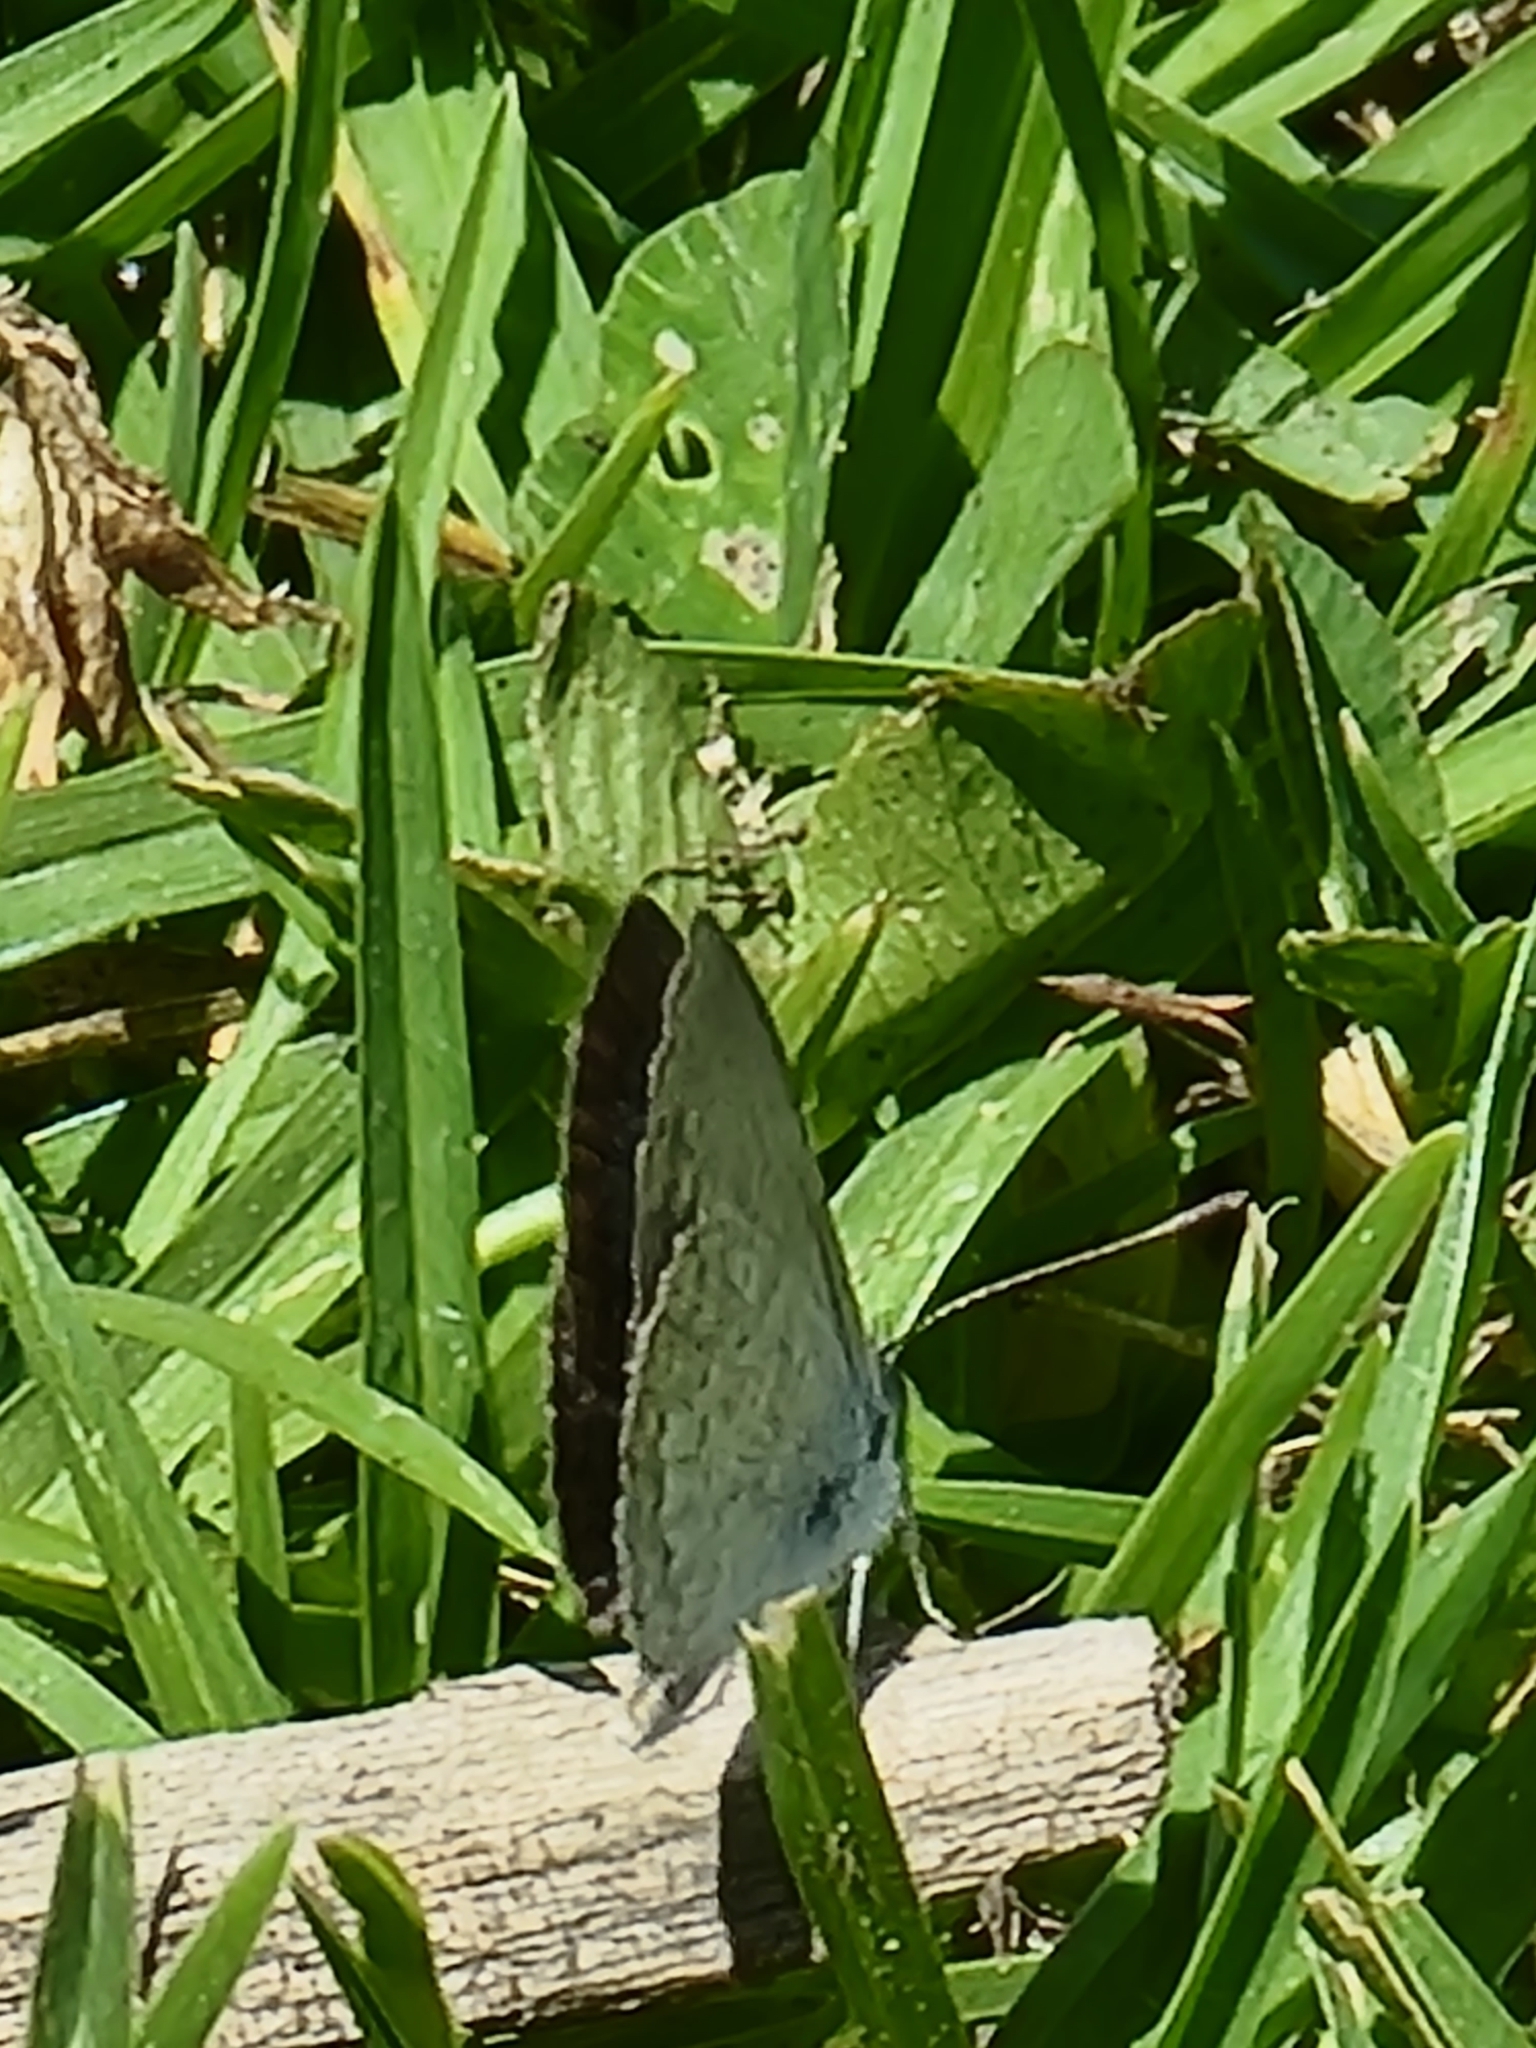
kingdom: Animalia
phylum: Arthropoda
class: Insecta
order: Lepidoptera
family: Lycaenidae
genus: Zizina
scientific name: Zizina otis
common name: Lesser grass blue
